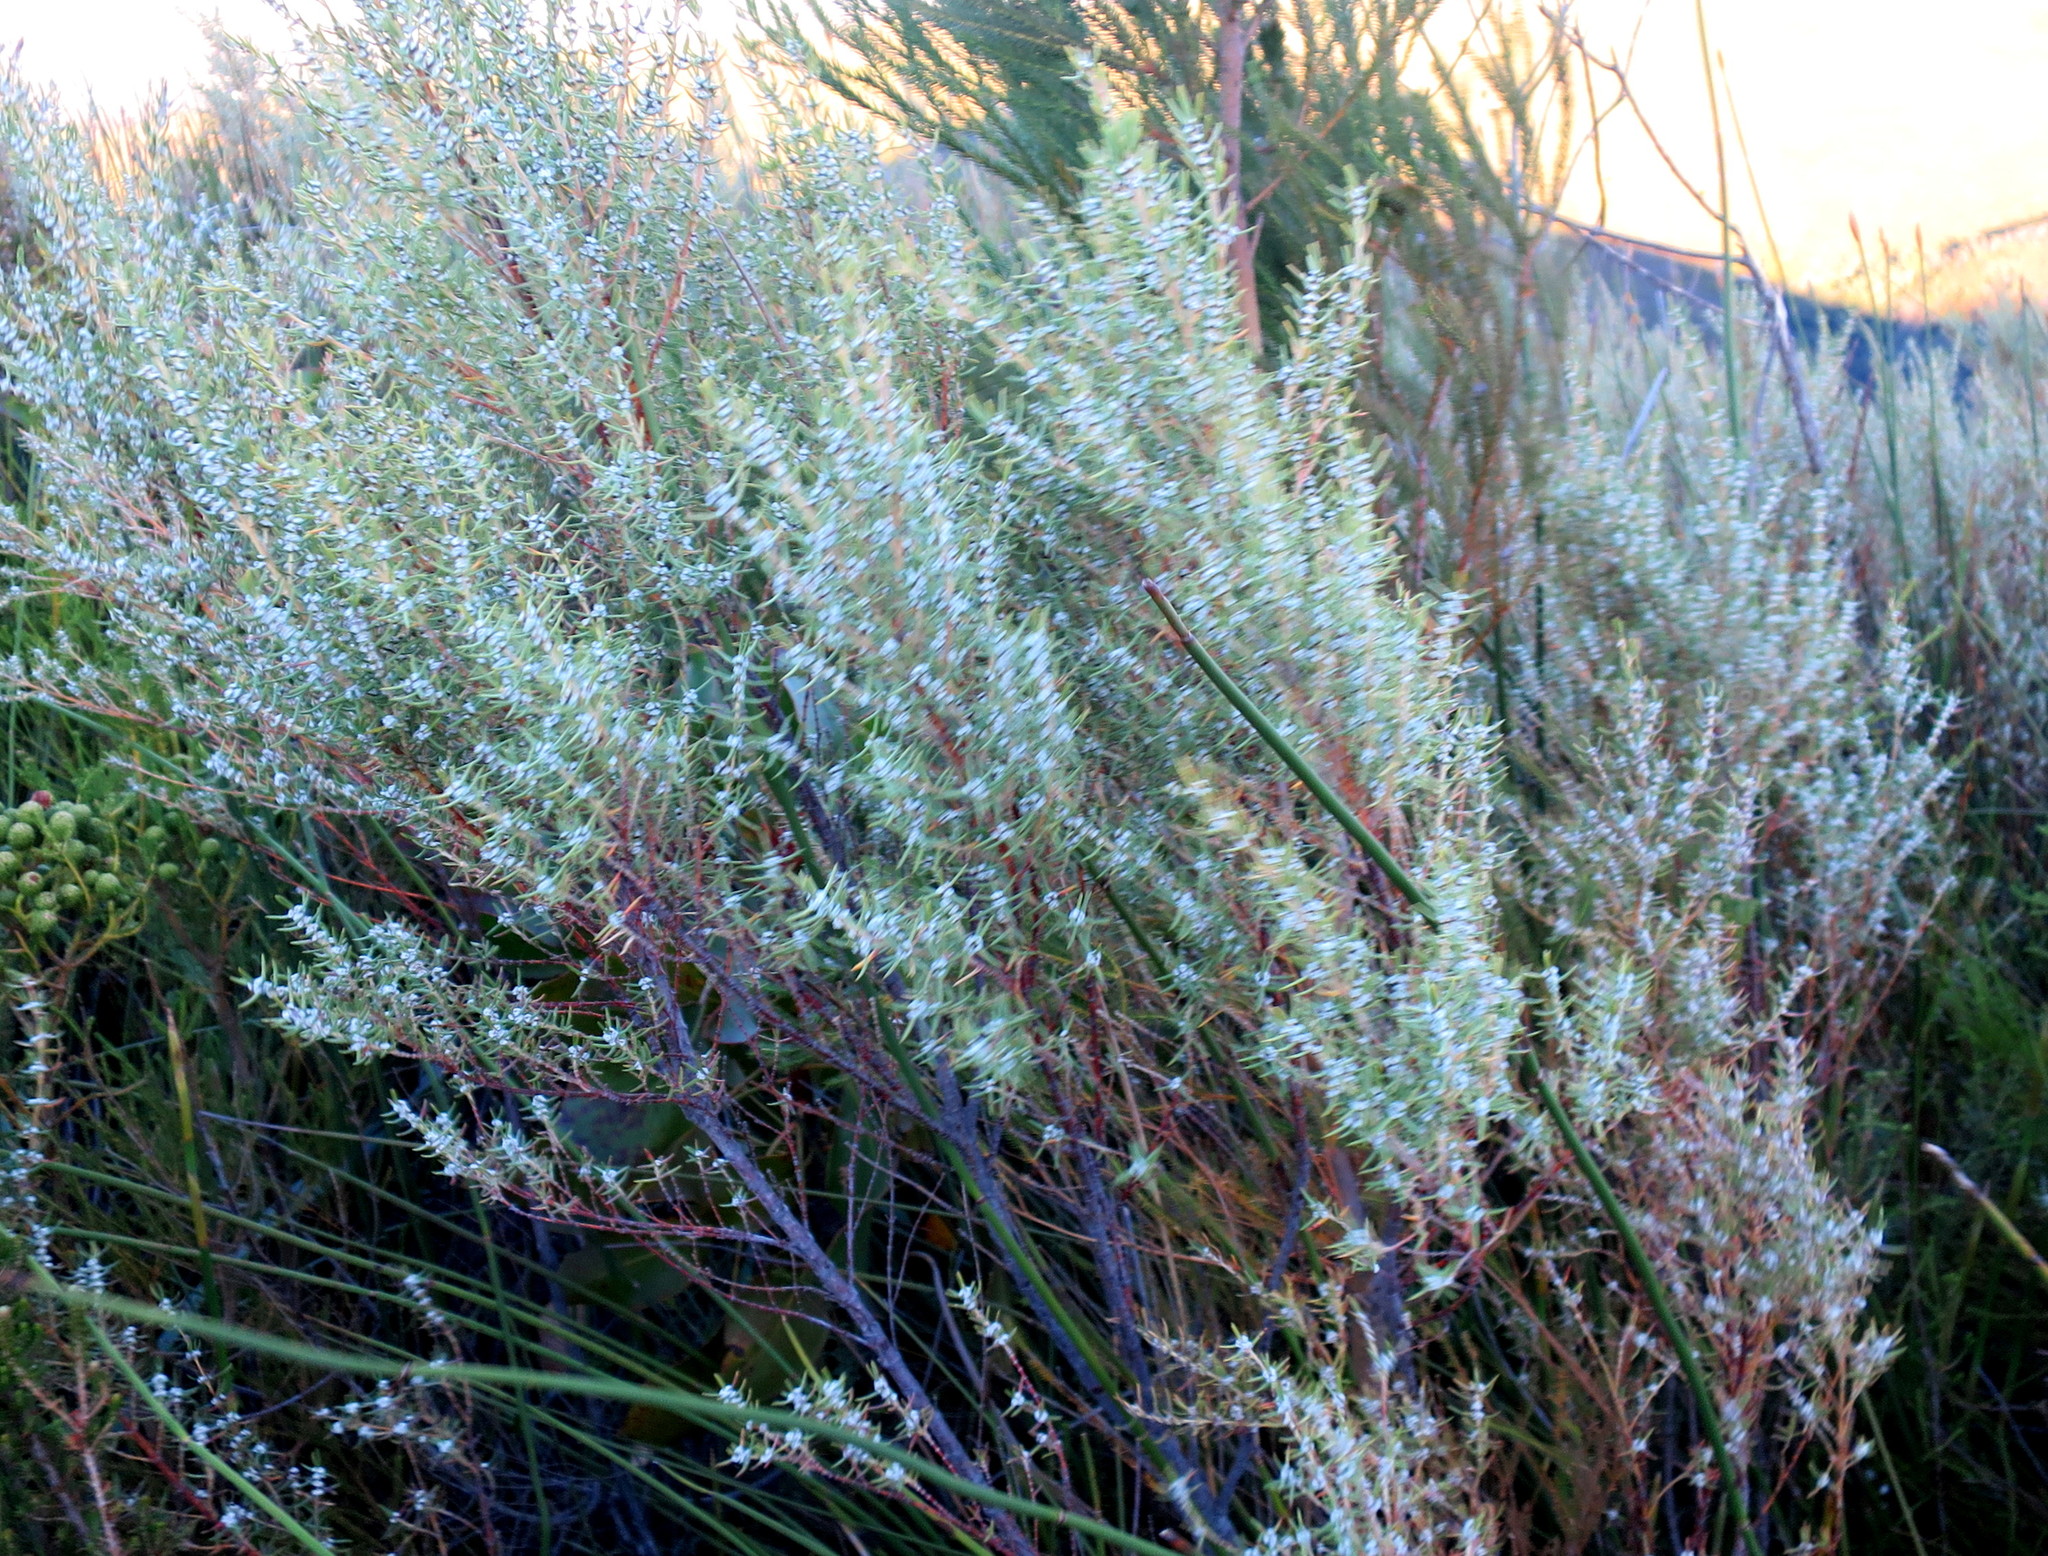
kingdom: Plantae
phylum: Tracheophyta
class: Magnoliopsida
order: Cornales
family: Grubbiaceae
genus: Grubbia
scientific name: Grubbia rosmarinifolia
